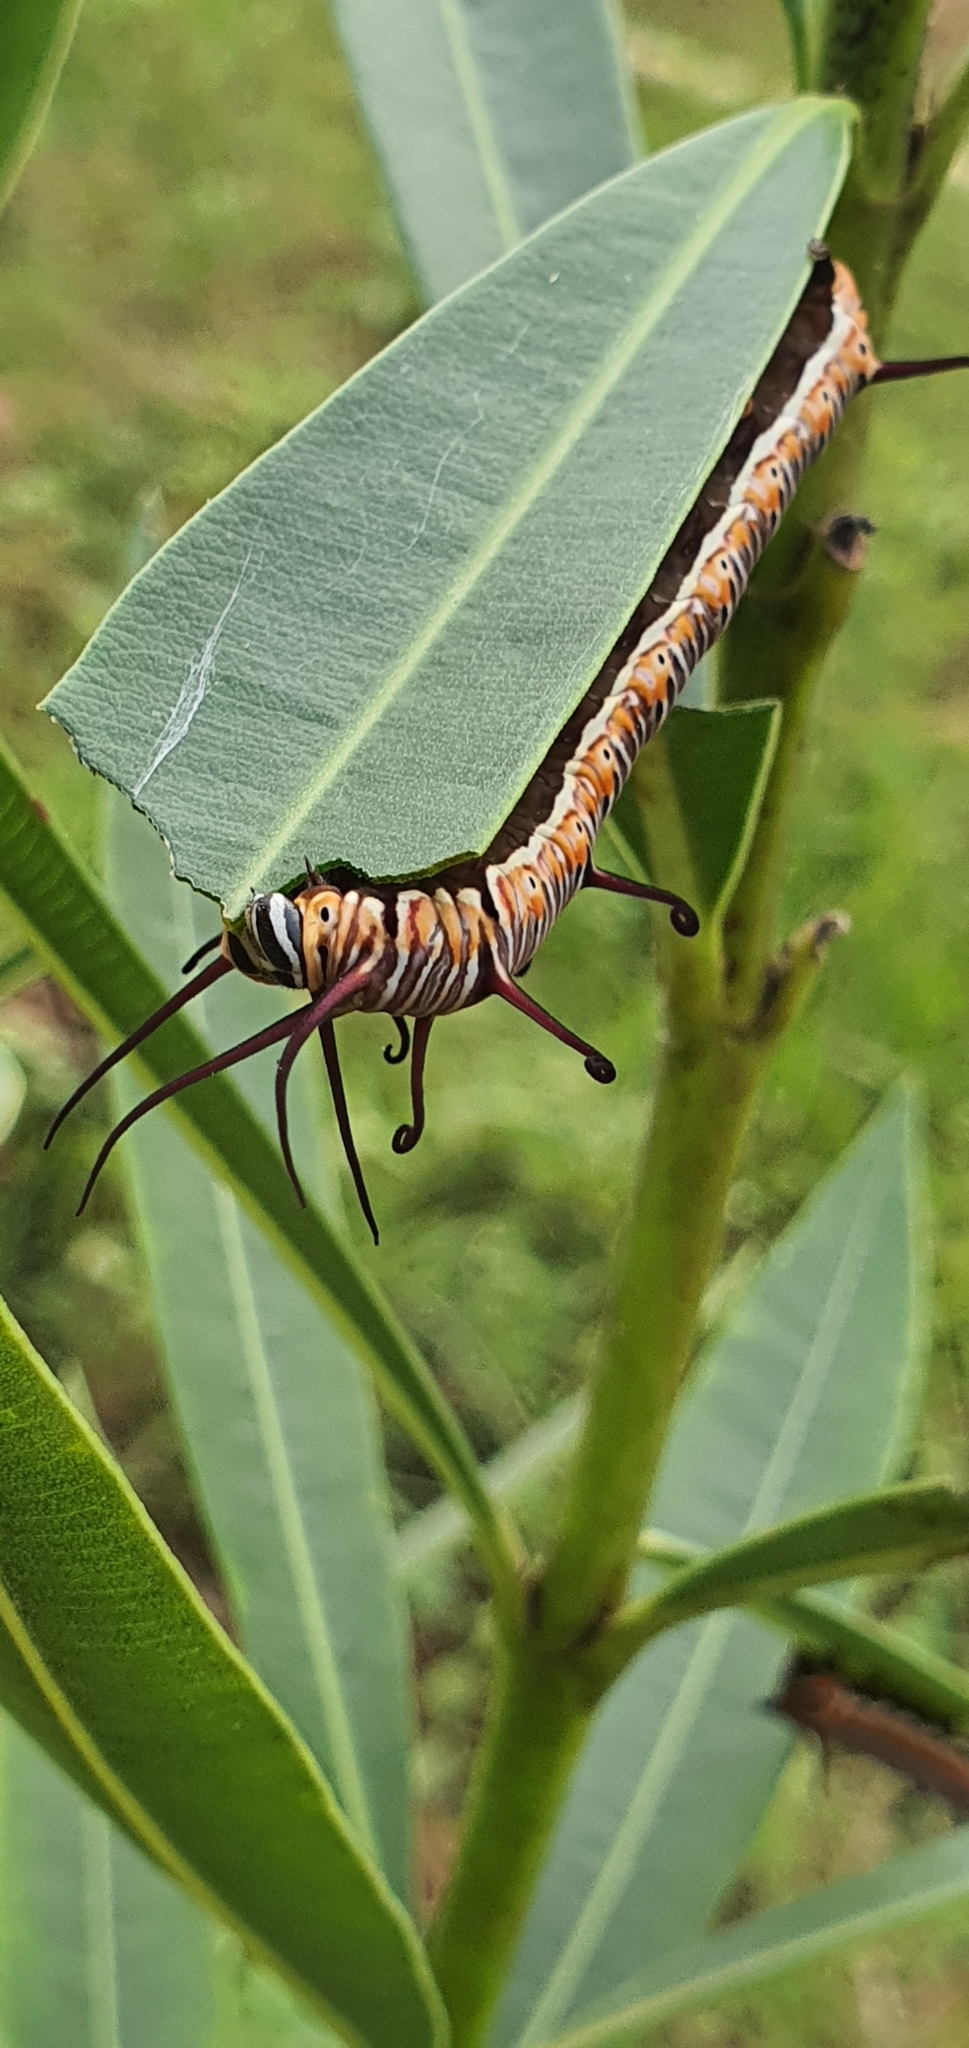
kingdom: Animalia
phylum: Arthropoda
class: Insecta
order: Lepidoptera
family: Nymphalidae
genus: Euploea
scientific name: Euploea core
